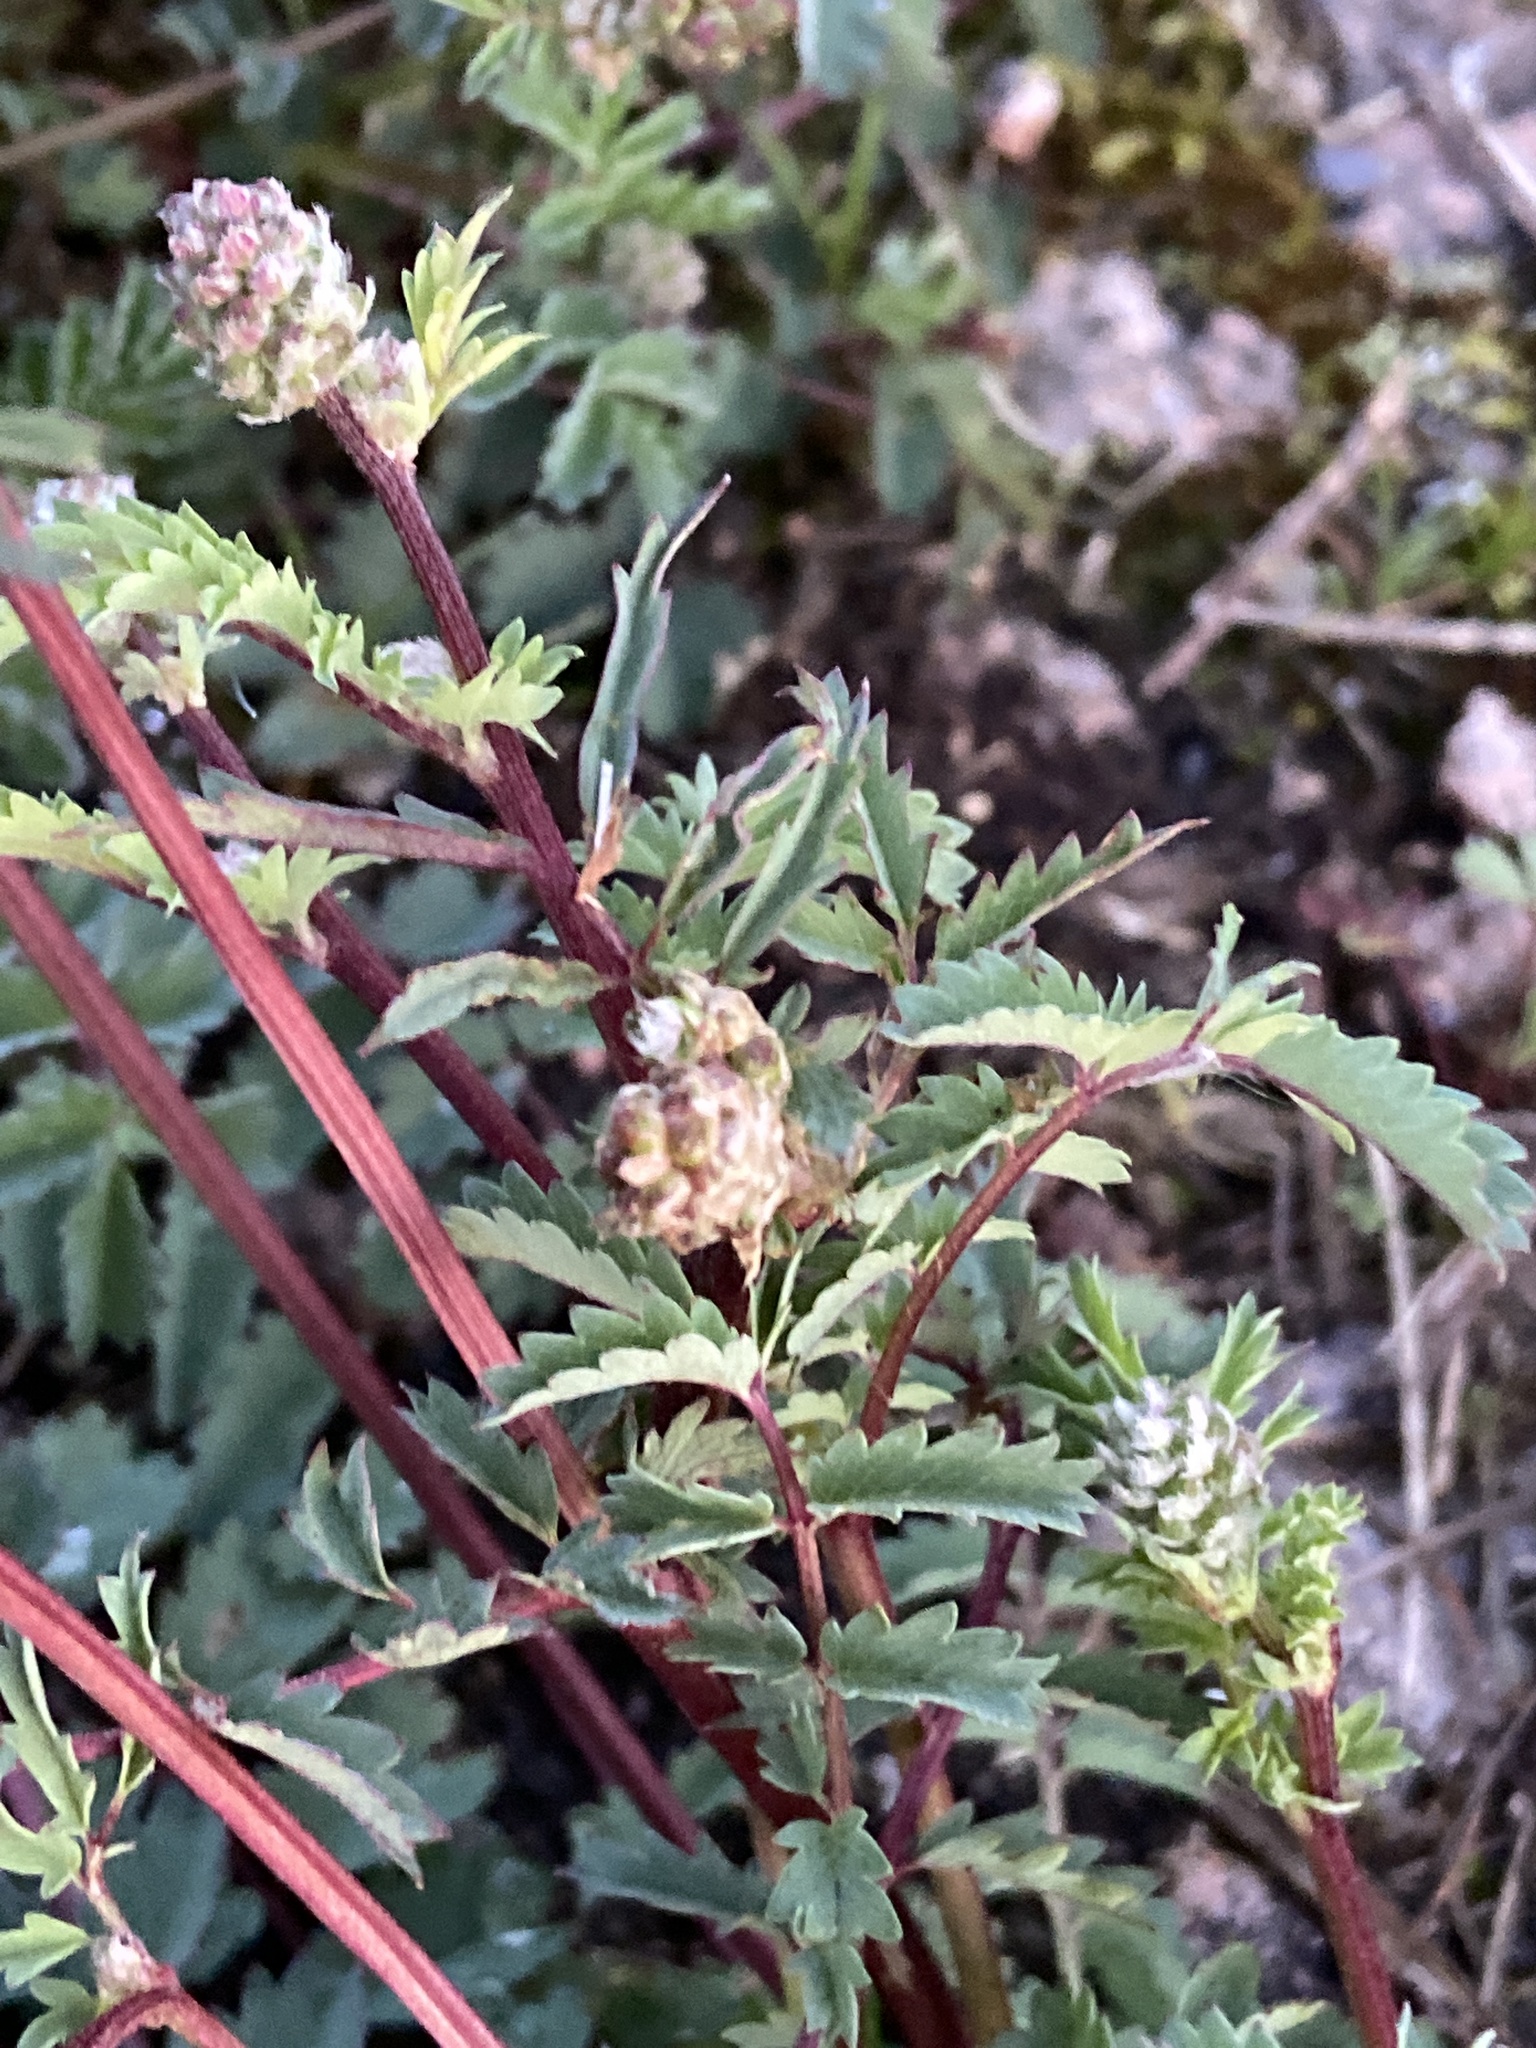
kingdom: Plantae
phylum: Tracheophyta
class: Magnoliopsida
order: Rosales
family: Rosaceae
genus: Poterium
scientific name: Poterium sanguisorba
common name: Salad burnet
